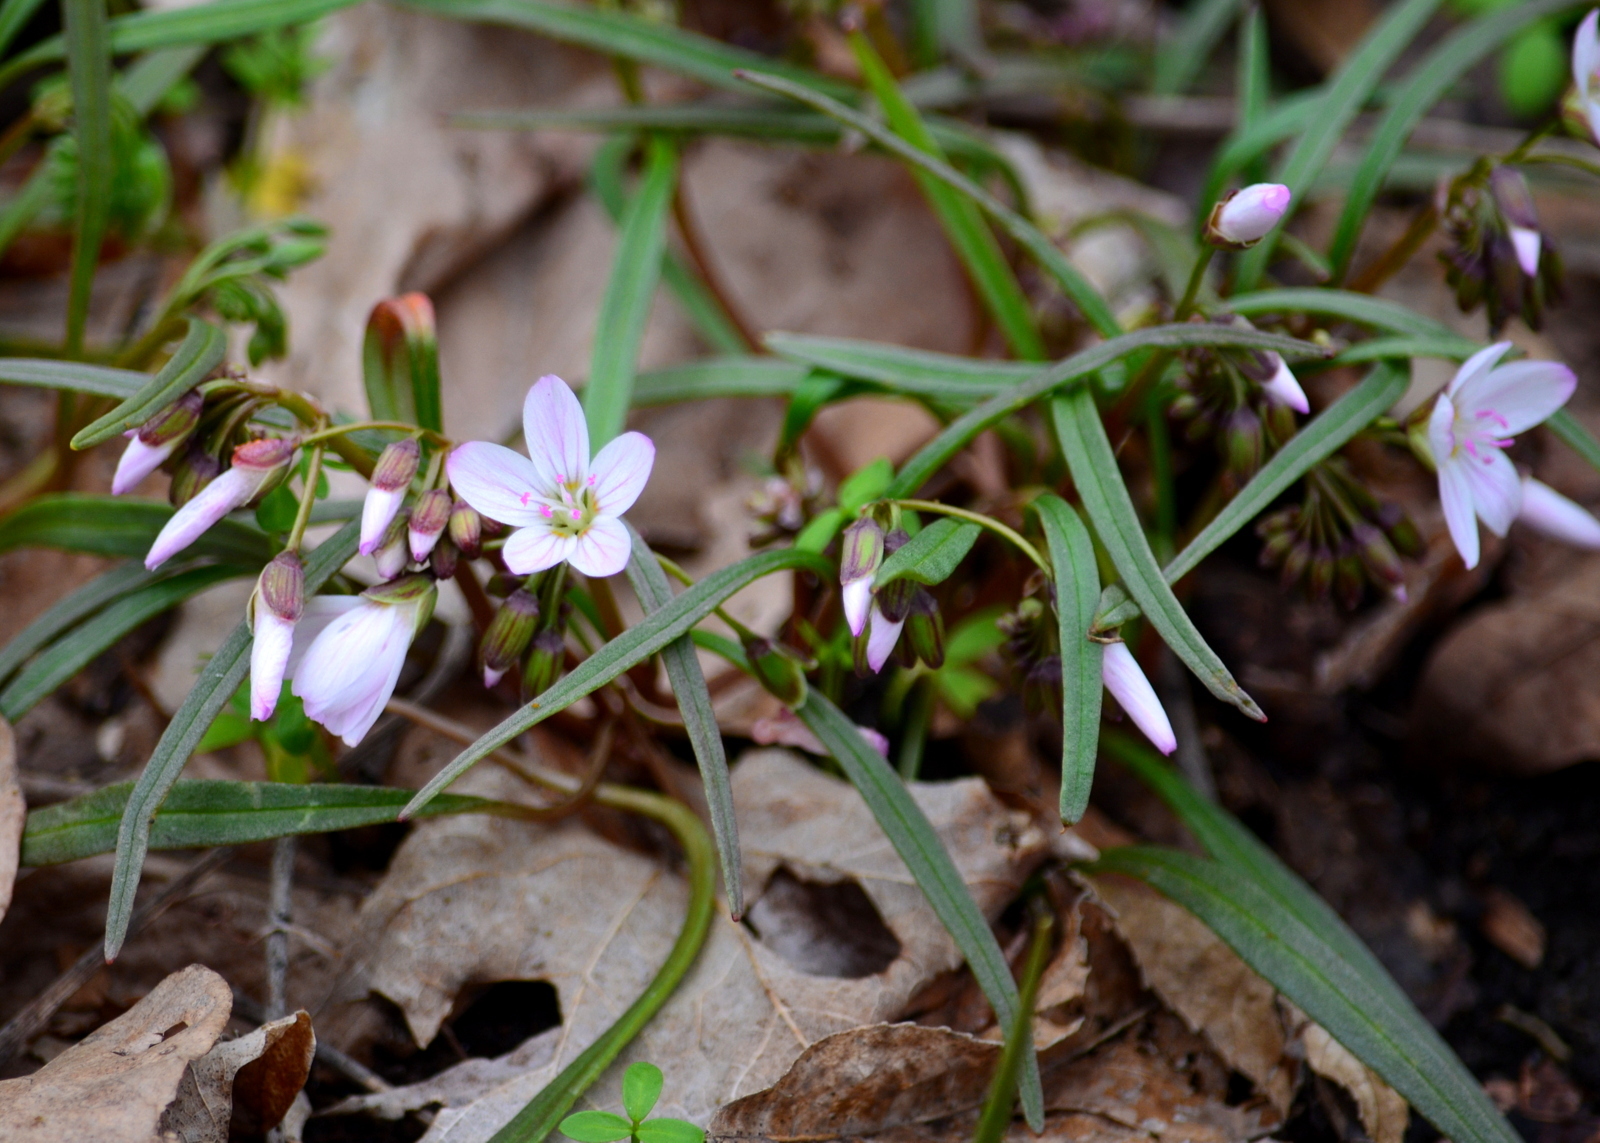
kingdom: Plantae
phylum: Tracheophyta
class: Magnoliopsida
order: Caryophyllales
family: Montiaceae
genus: Claytonia
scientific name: Claytonia virginica
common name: Virginia springbeauty
